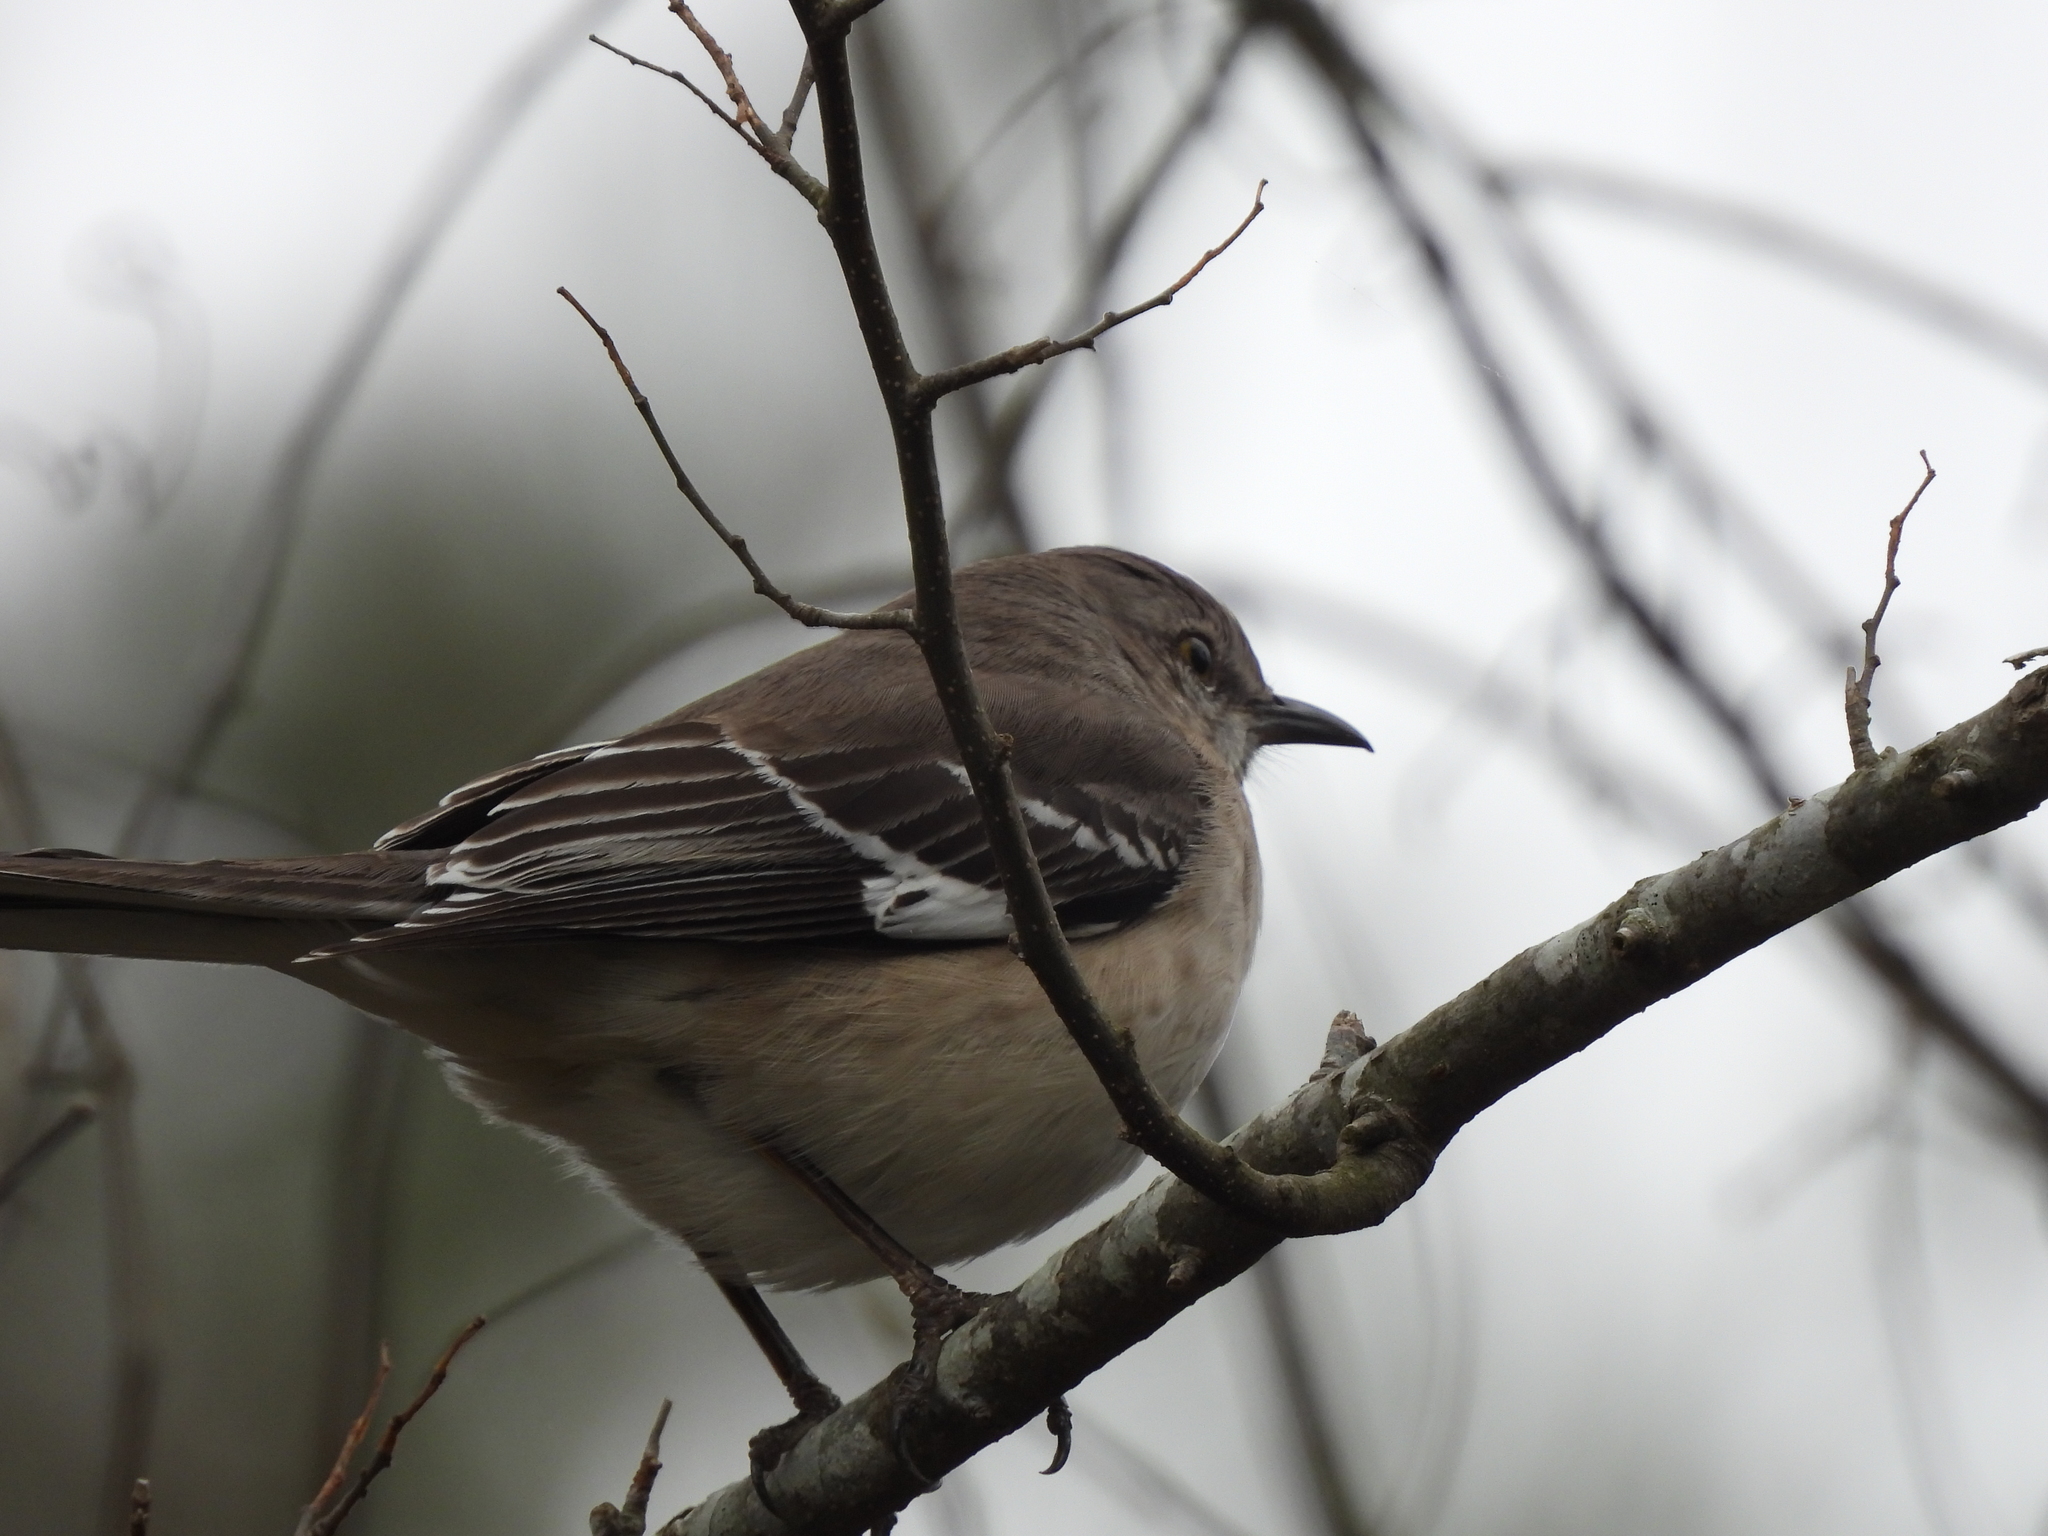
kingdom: Animalia
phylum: Chordata
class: Aves
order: Passeriformes
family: Mimidae
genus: Mimus
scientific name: Mimus polyglottos
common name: Northern mockingbird
